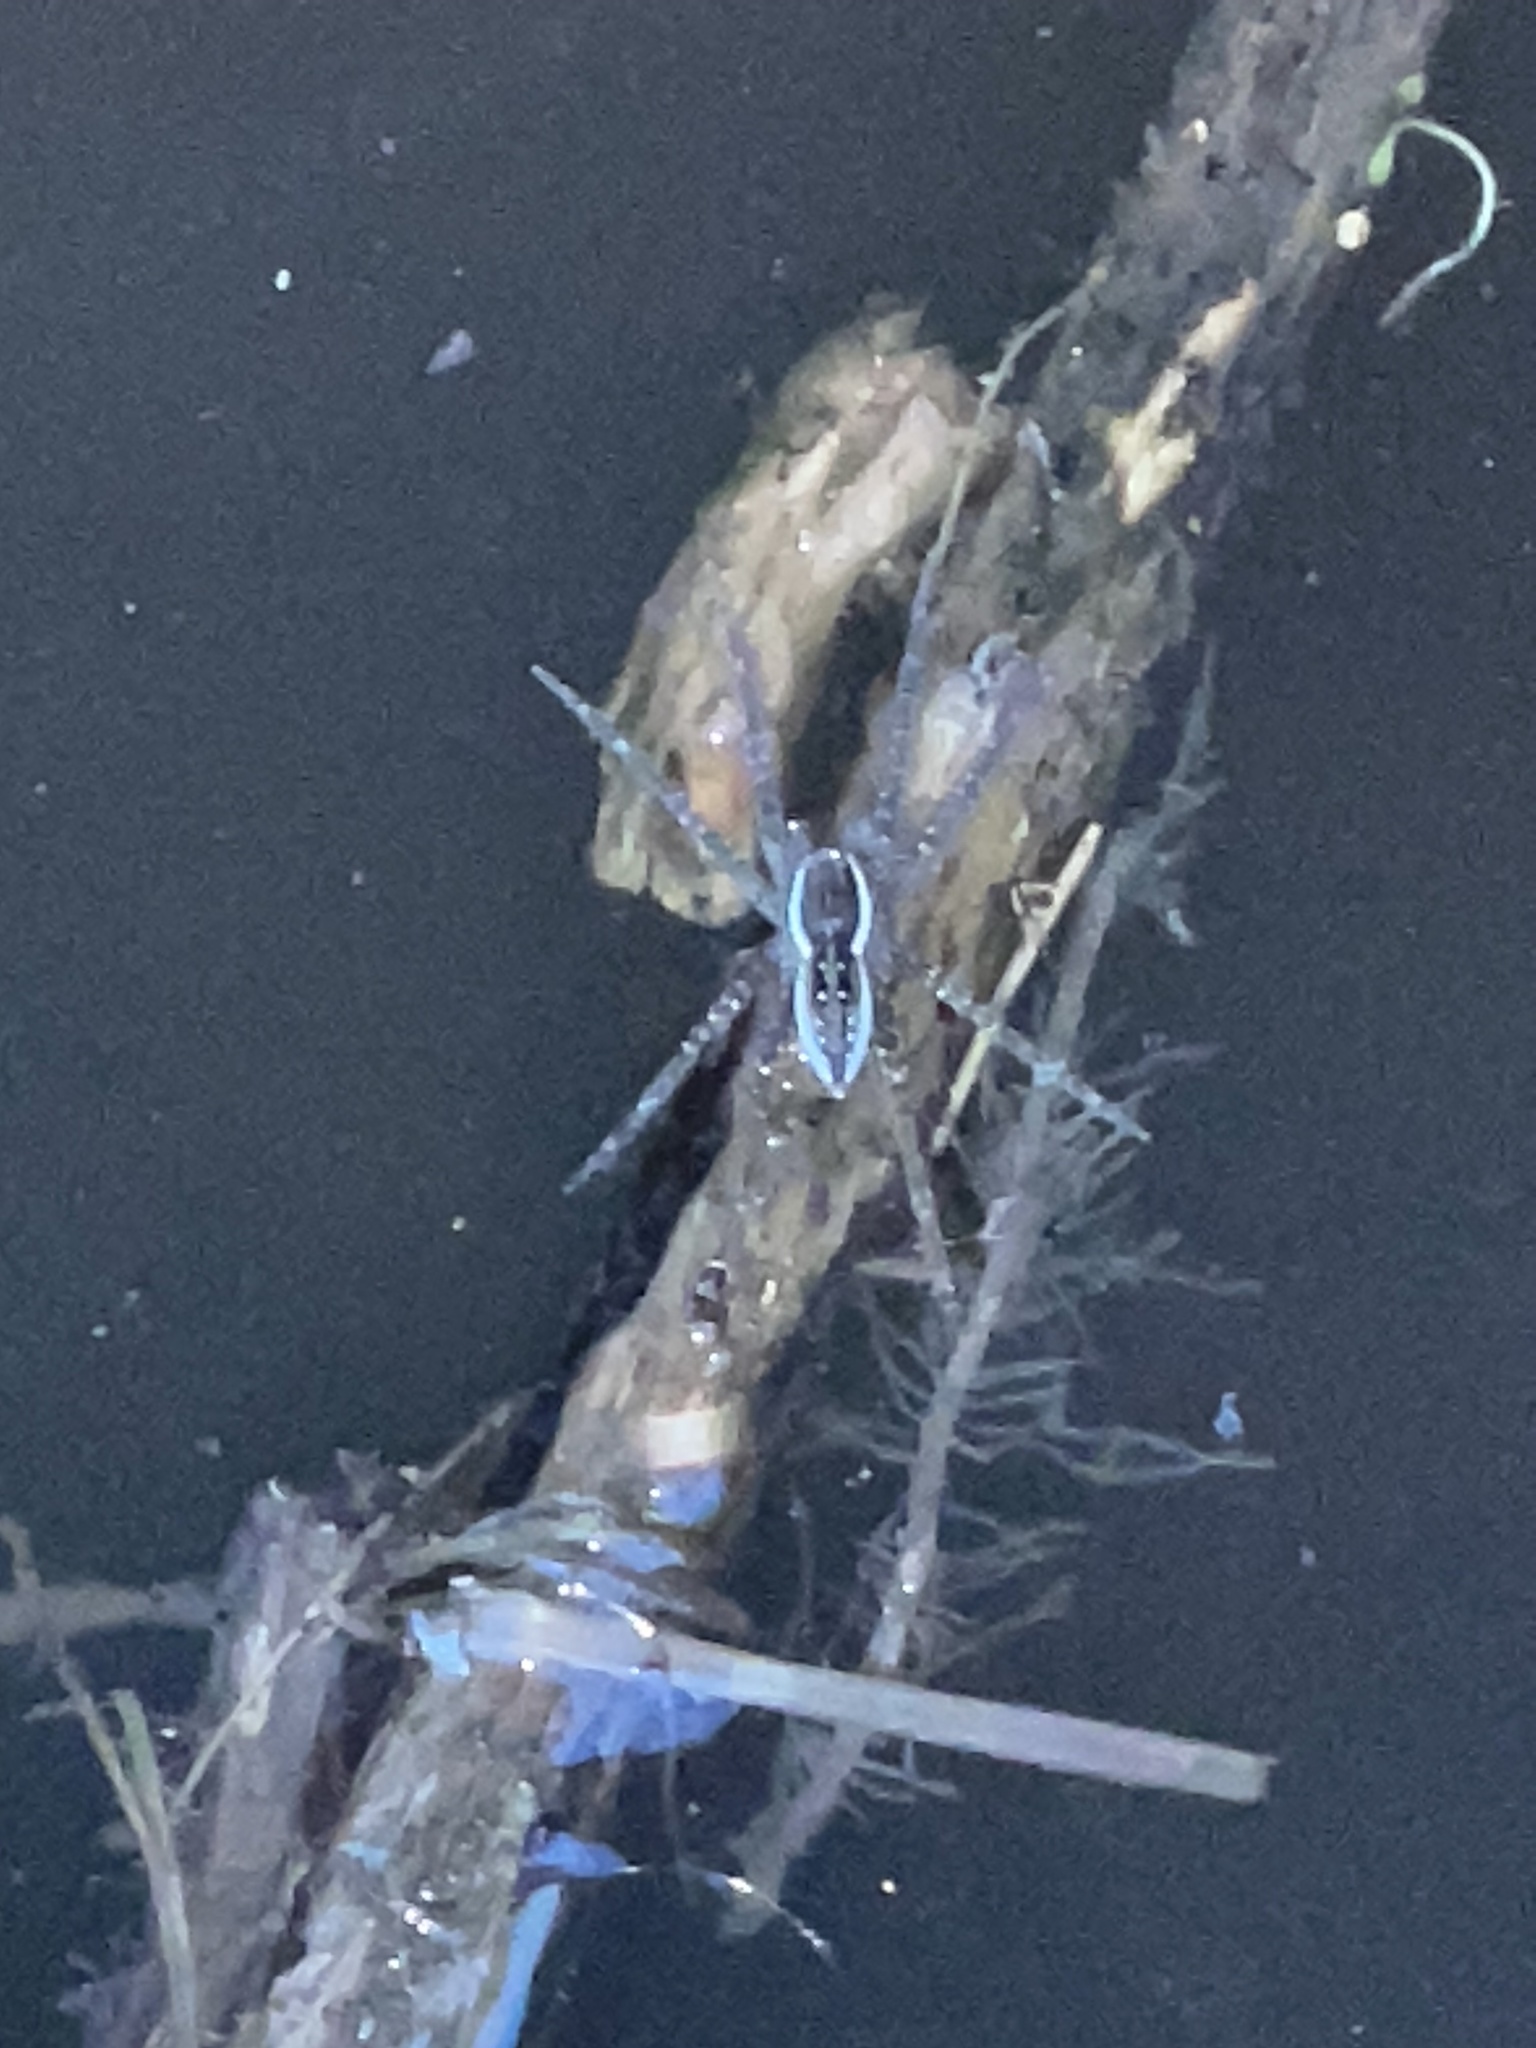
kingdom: Animalia
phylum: Arthropoda
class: Arachnida
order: Araneae
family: Pisauridae
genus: Dolomedes
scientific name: Dolomedes triton
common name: Six-spotted fishing spider
